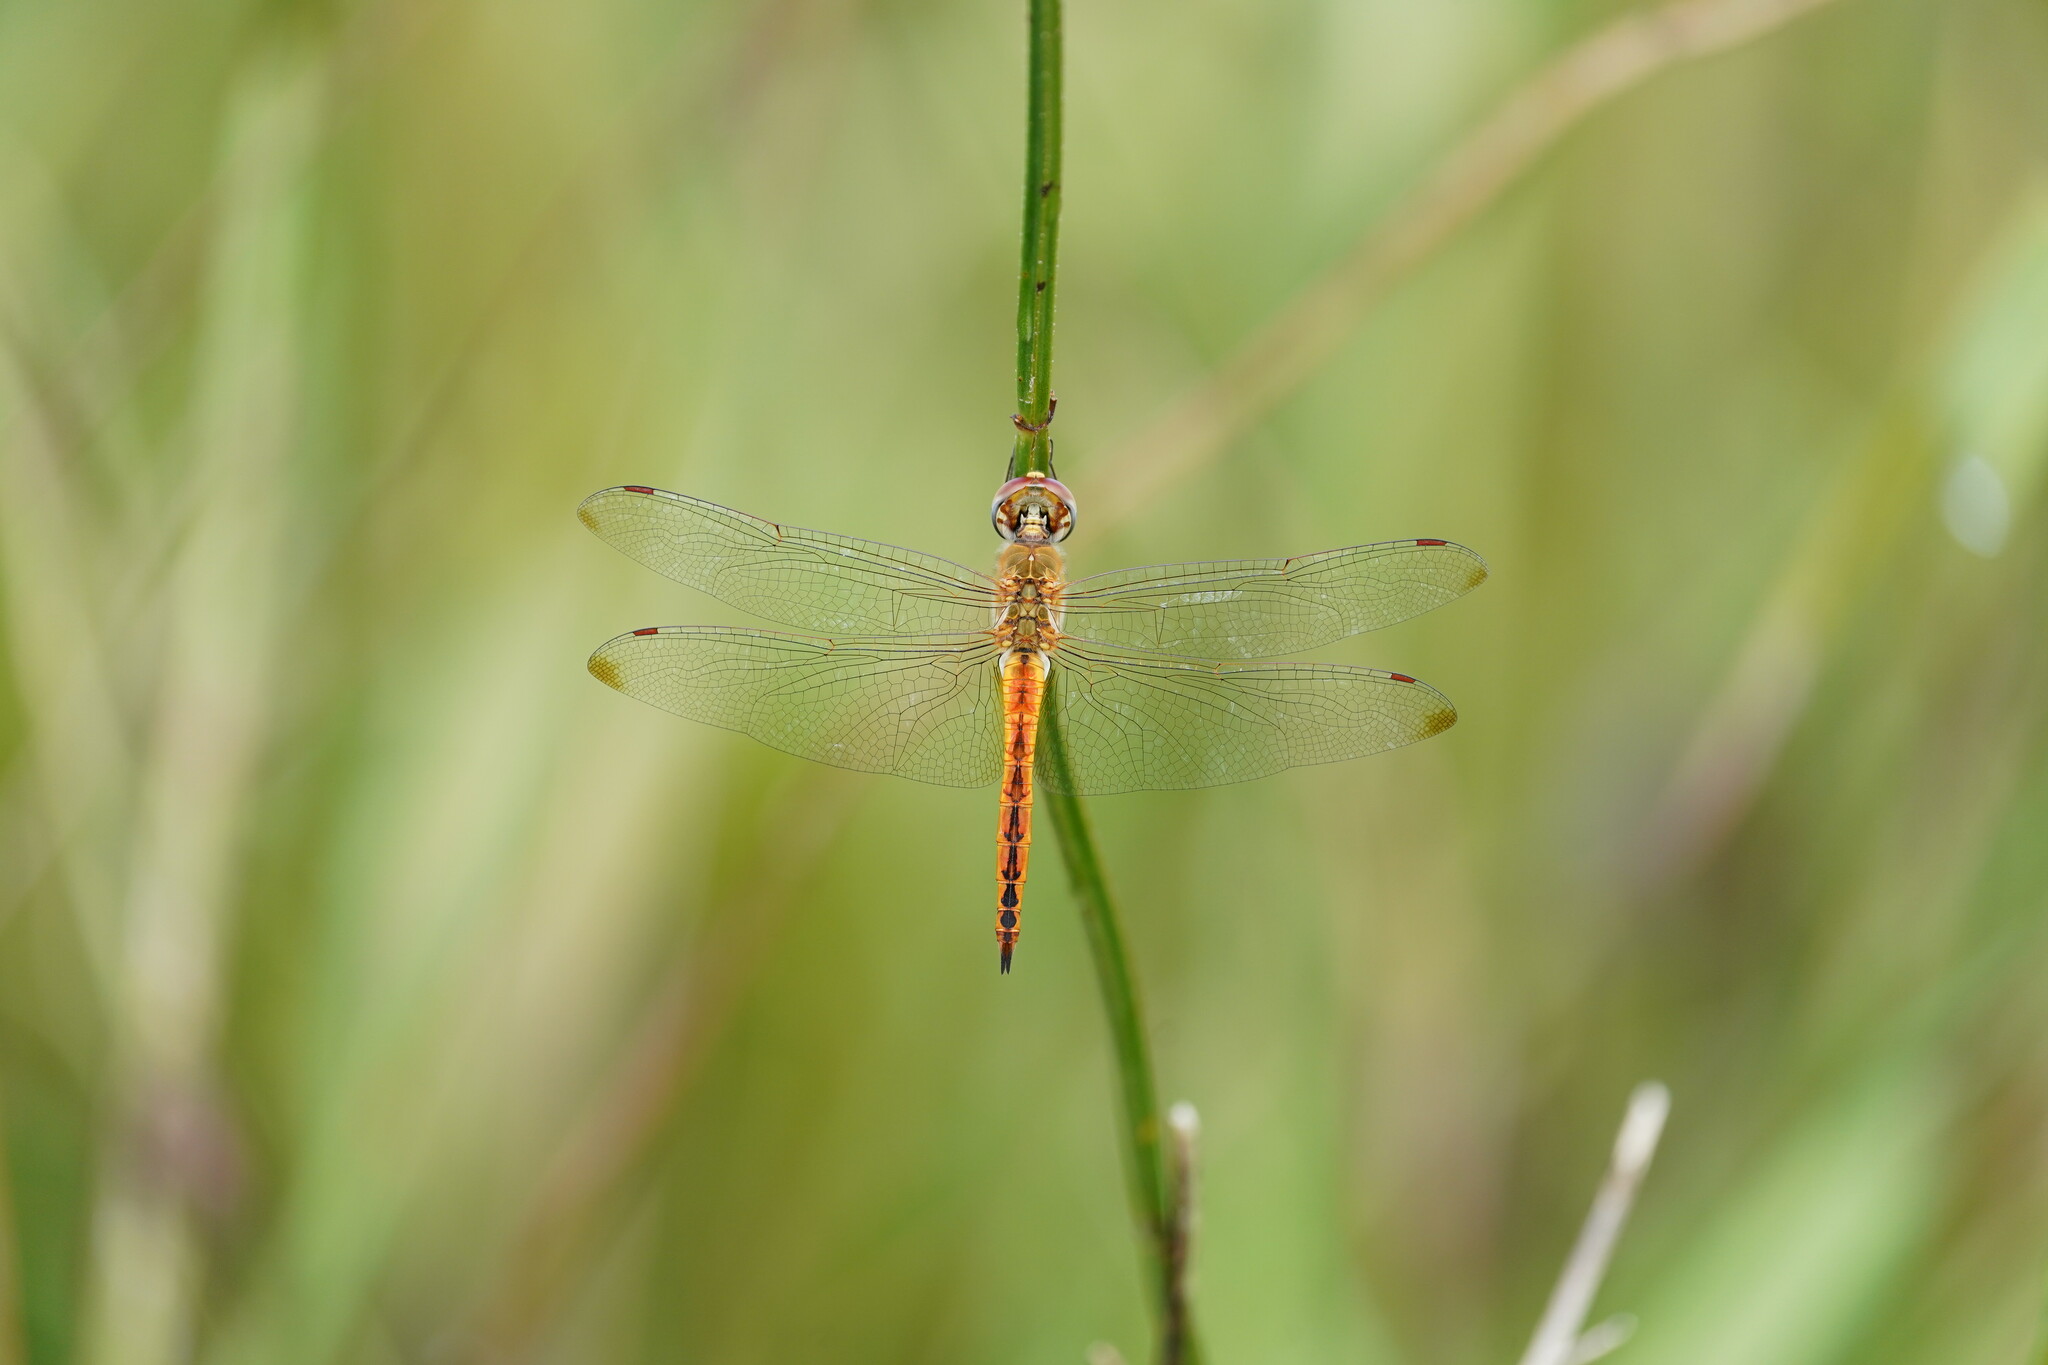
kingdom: Animalia
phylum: Arthropoda
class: Insecta
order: Odonata
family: Libellulidae
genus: Pantala
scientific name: Pantala flavescens
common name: Wandering glider
